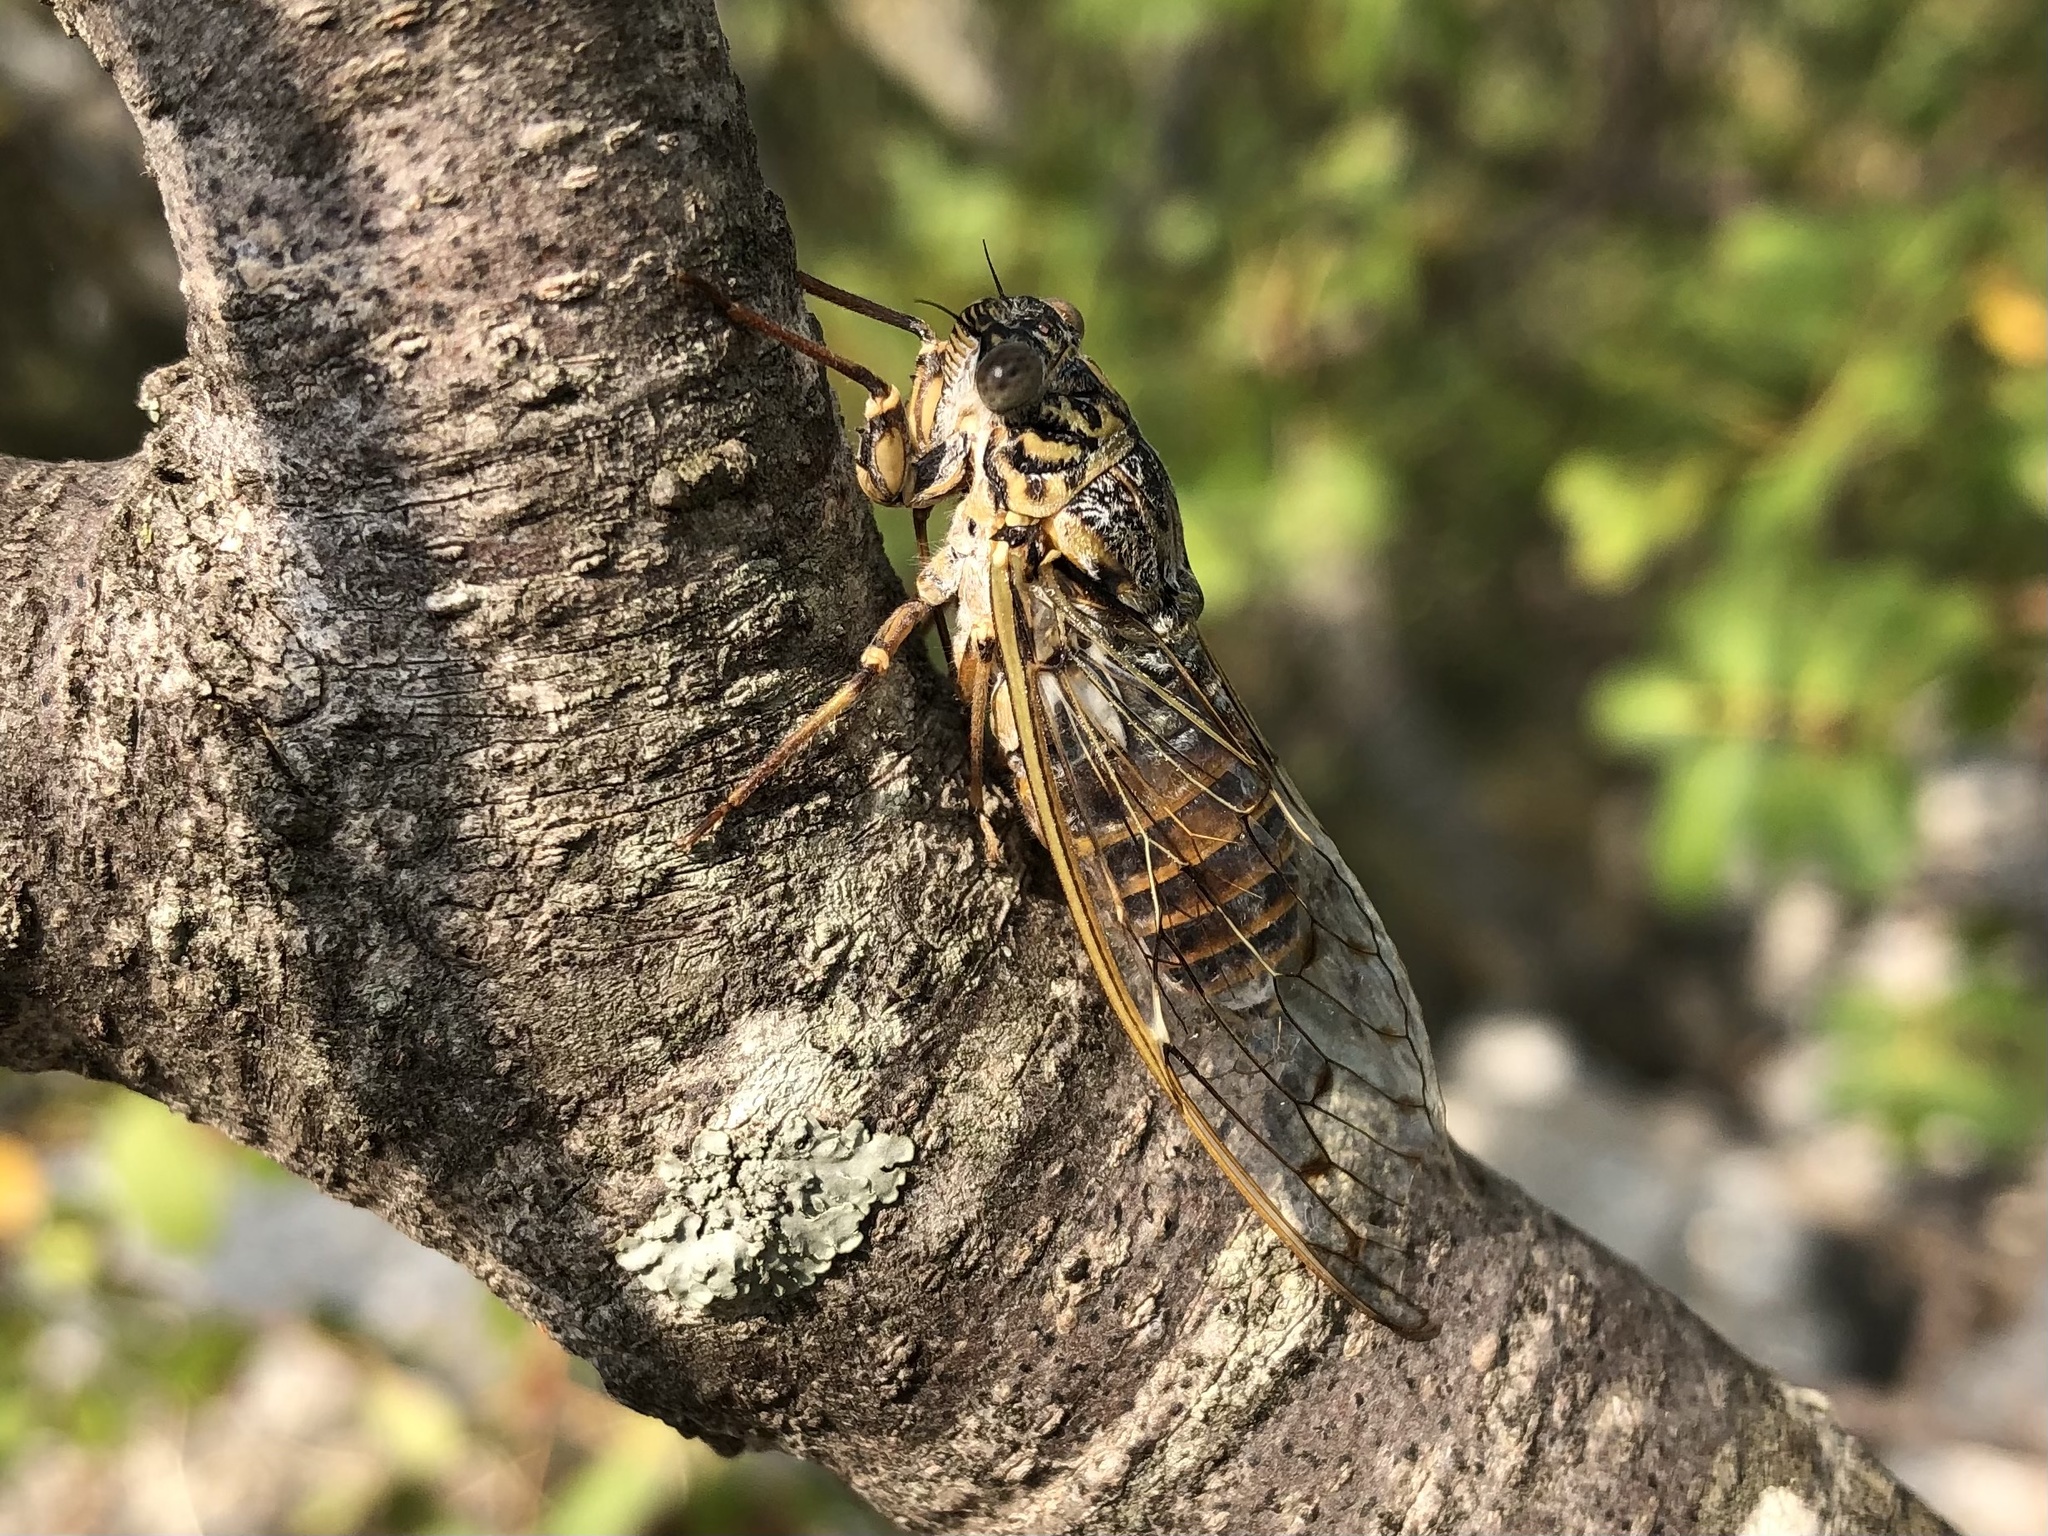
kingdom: Animalia
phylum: Arthropoda
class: Insecta
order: Hemiptera
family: Cicadidae
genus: Cicada
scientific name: Cicada orni
